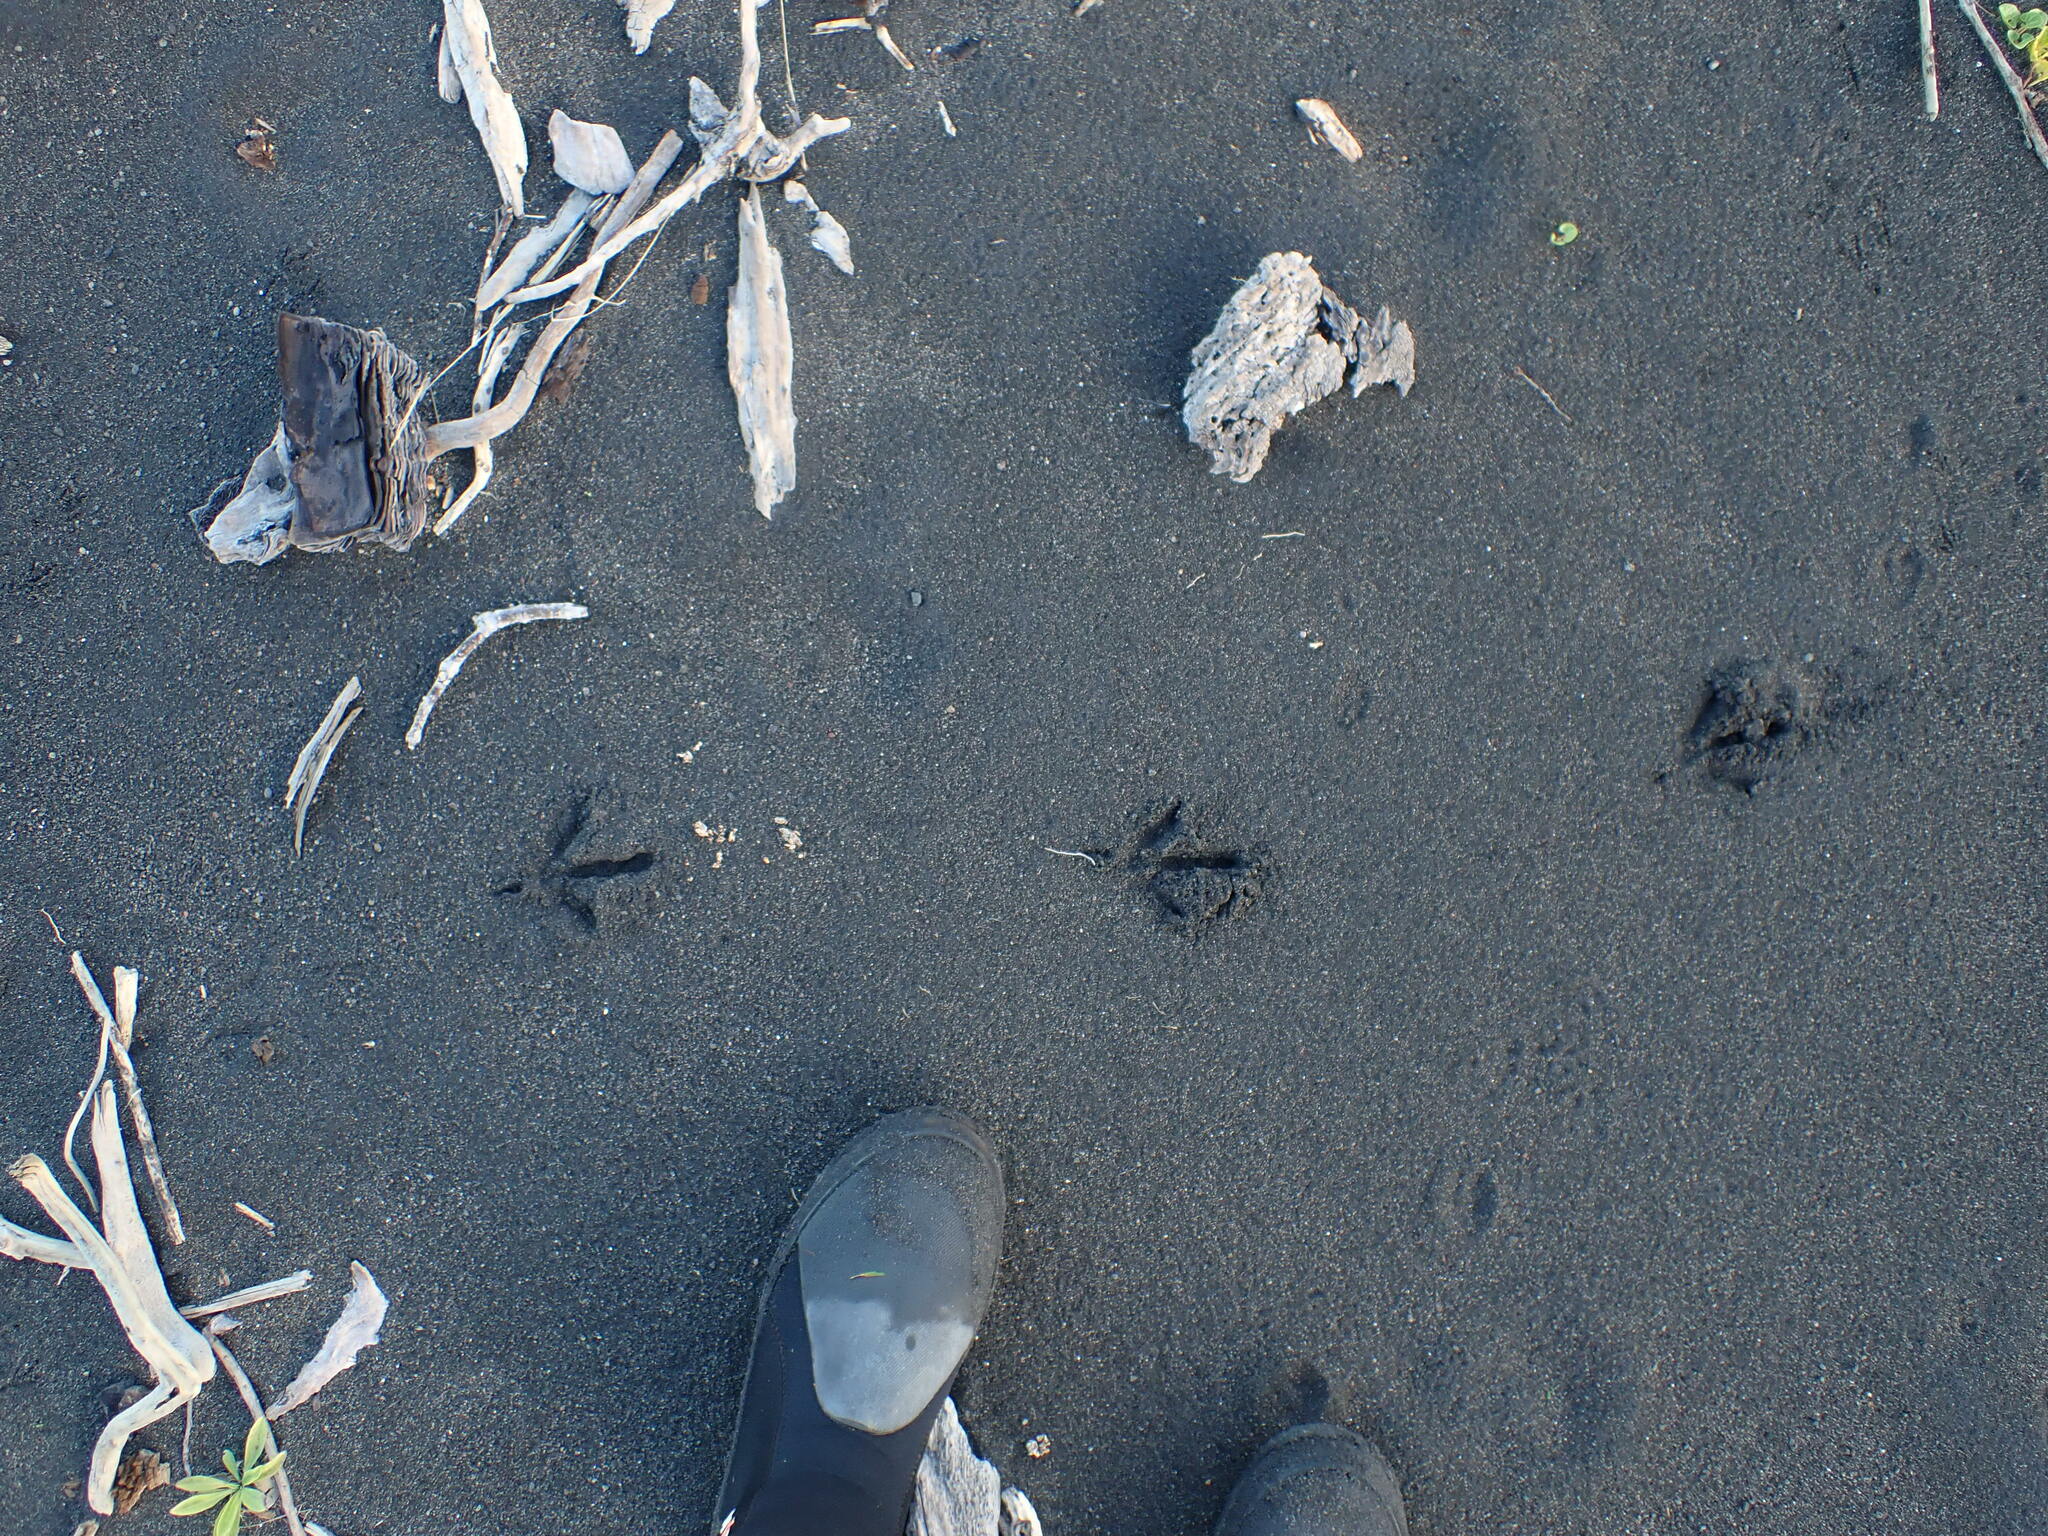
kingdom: Animalia
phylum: Chordata
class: Aves
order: Gruiformes
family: Rallidae
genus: Porphyrio
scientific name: Porphyrio melanotus
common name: Australasian swamphen
